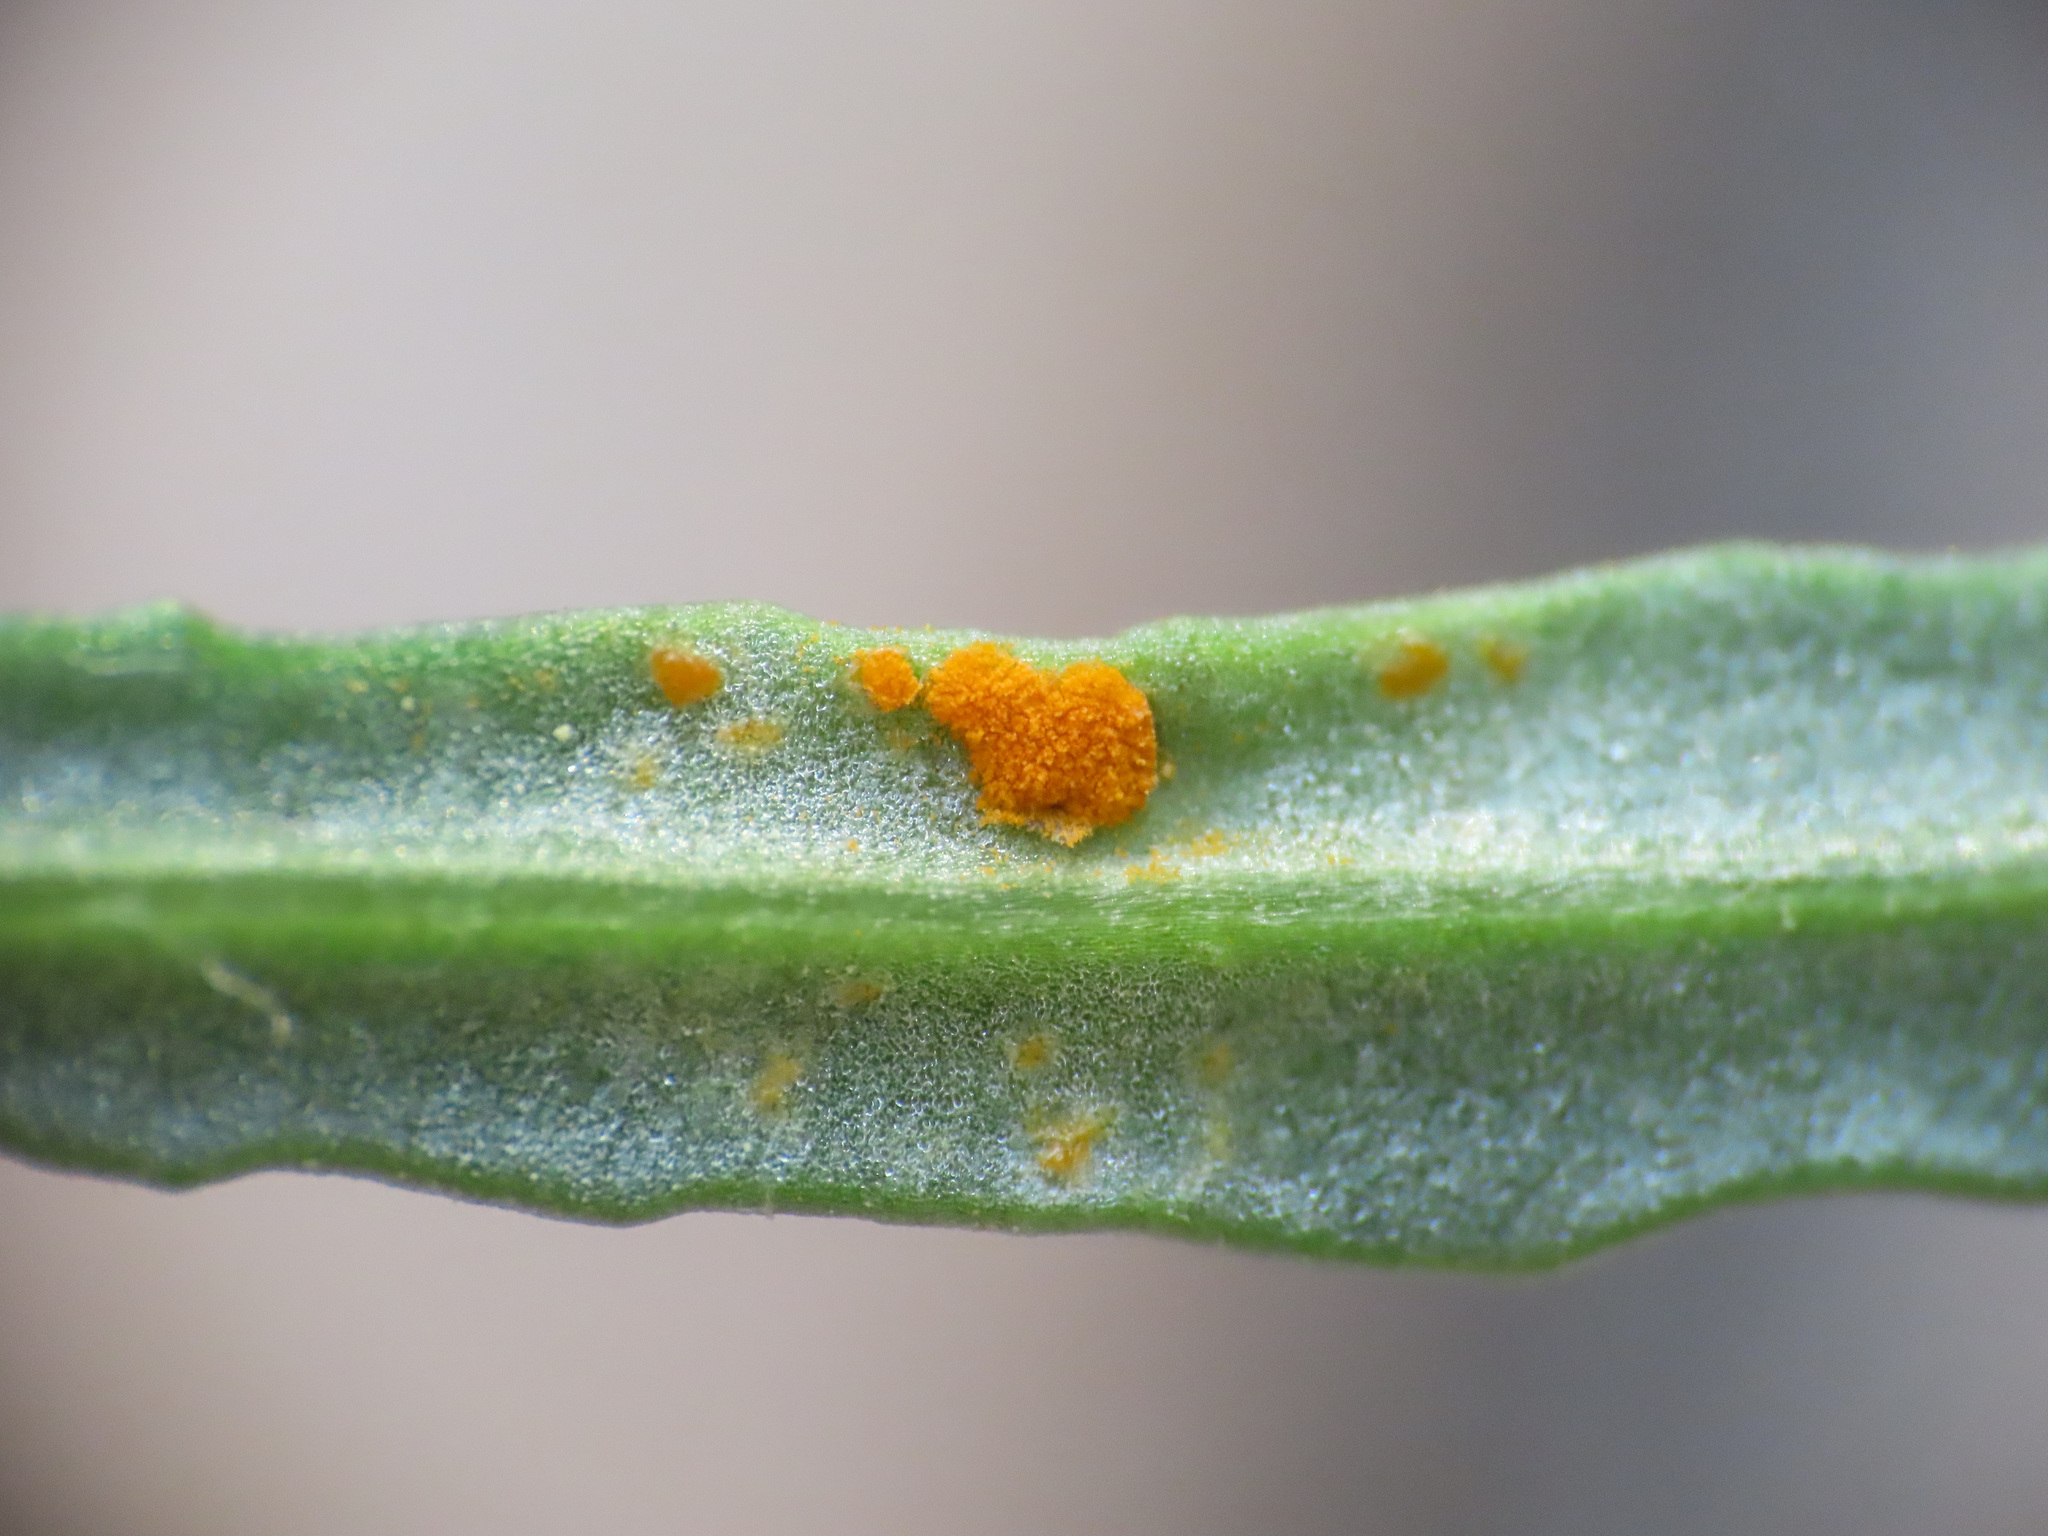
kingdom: Fungi
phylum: Basidiomycota
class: Pucciniomycetes
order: Pucciniales
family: Coleosporiaceae
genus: Coleosporium
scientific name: Coleosporium senecionis
